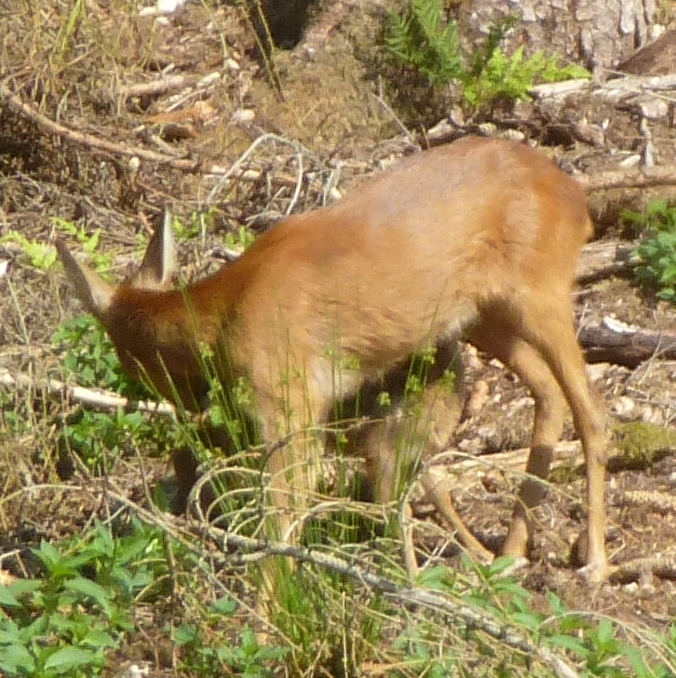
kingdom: Animalia
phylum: Chordata
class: Mammalia
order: Artiodactyla
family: Cervidae
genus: Capreolus
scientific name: Capreolus capreolus
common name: Western roe deer
